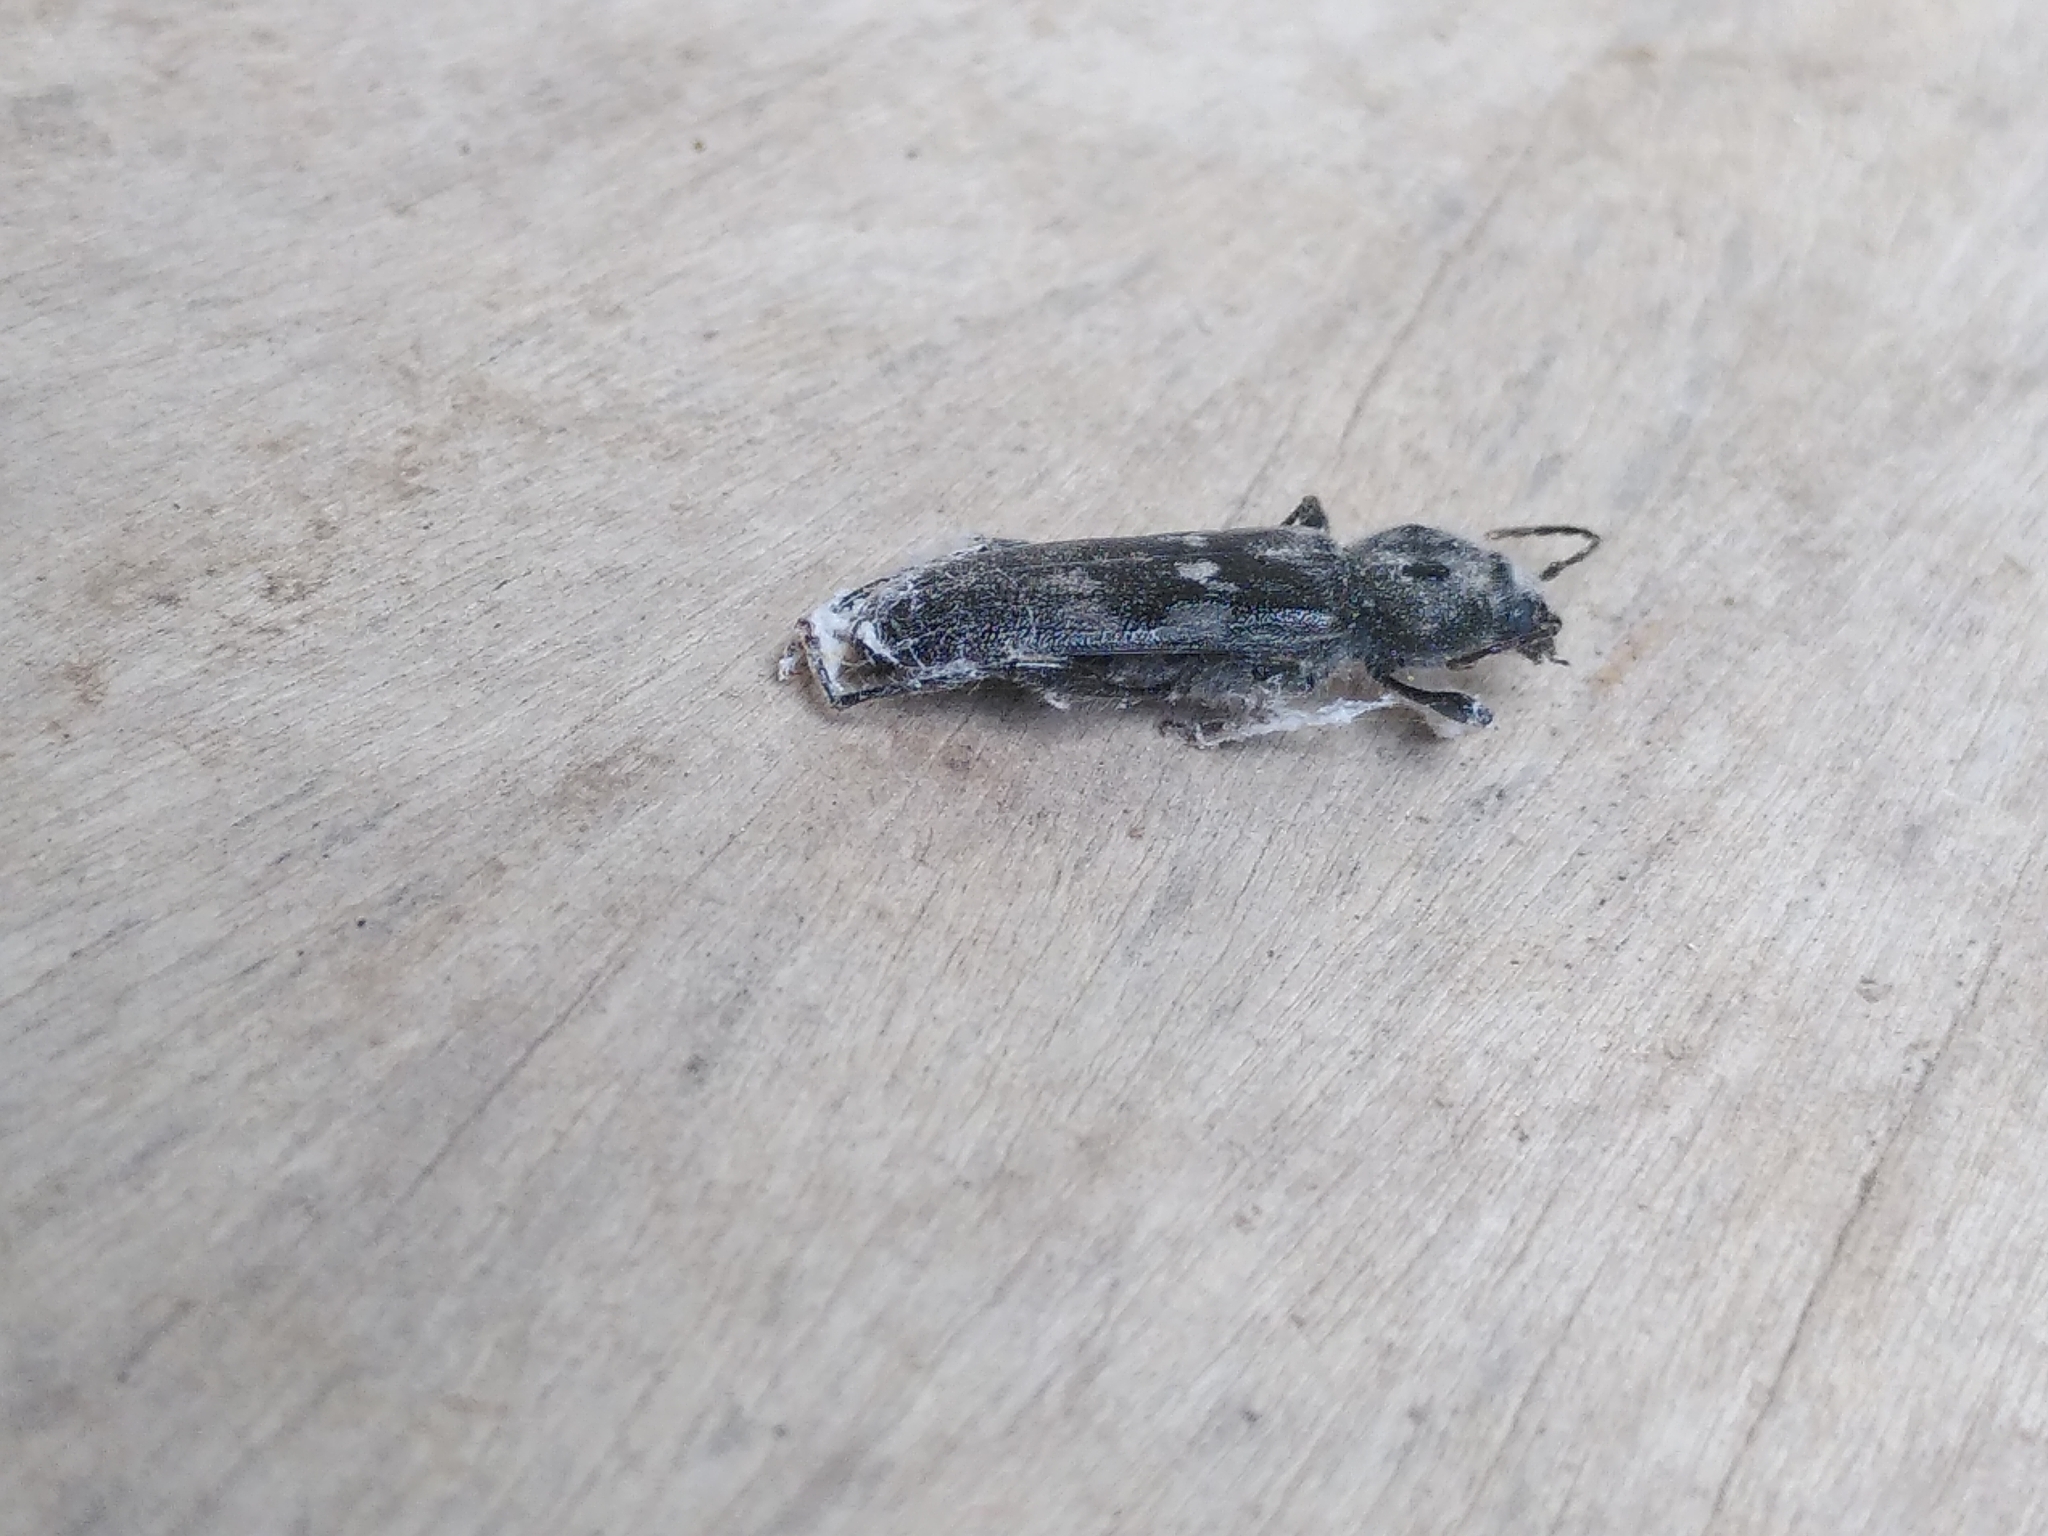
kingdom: Animalia
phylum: Arthropoda
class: Insecta
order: Coleoptera
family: Cerambycidae
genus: Hylotrupes
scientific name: Hylotrupes bajulus
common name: Old house borer
